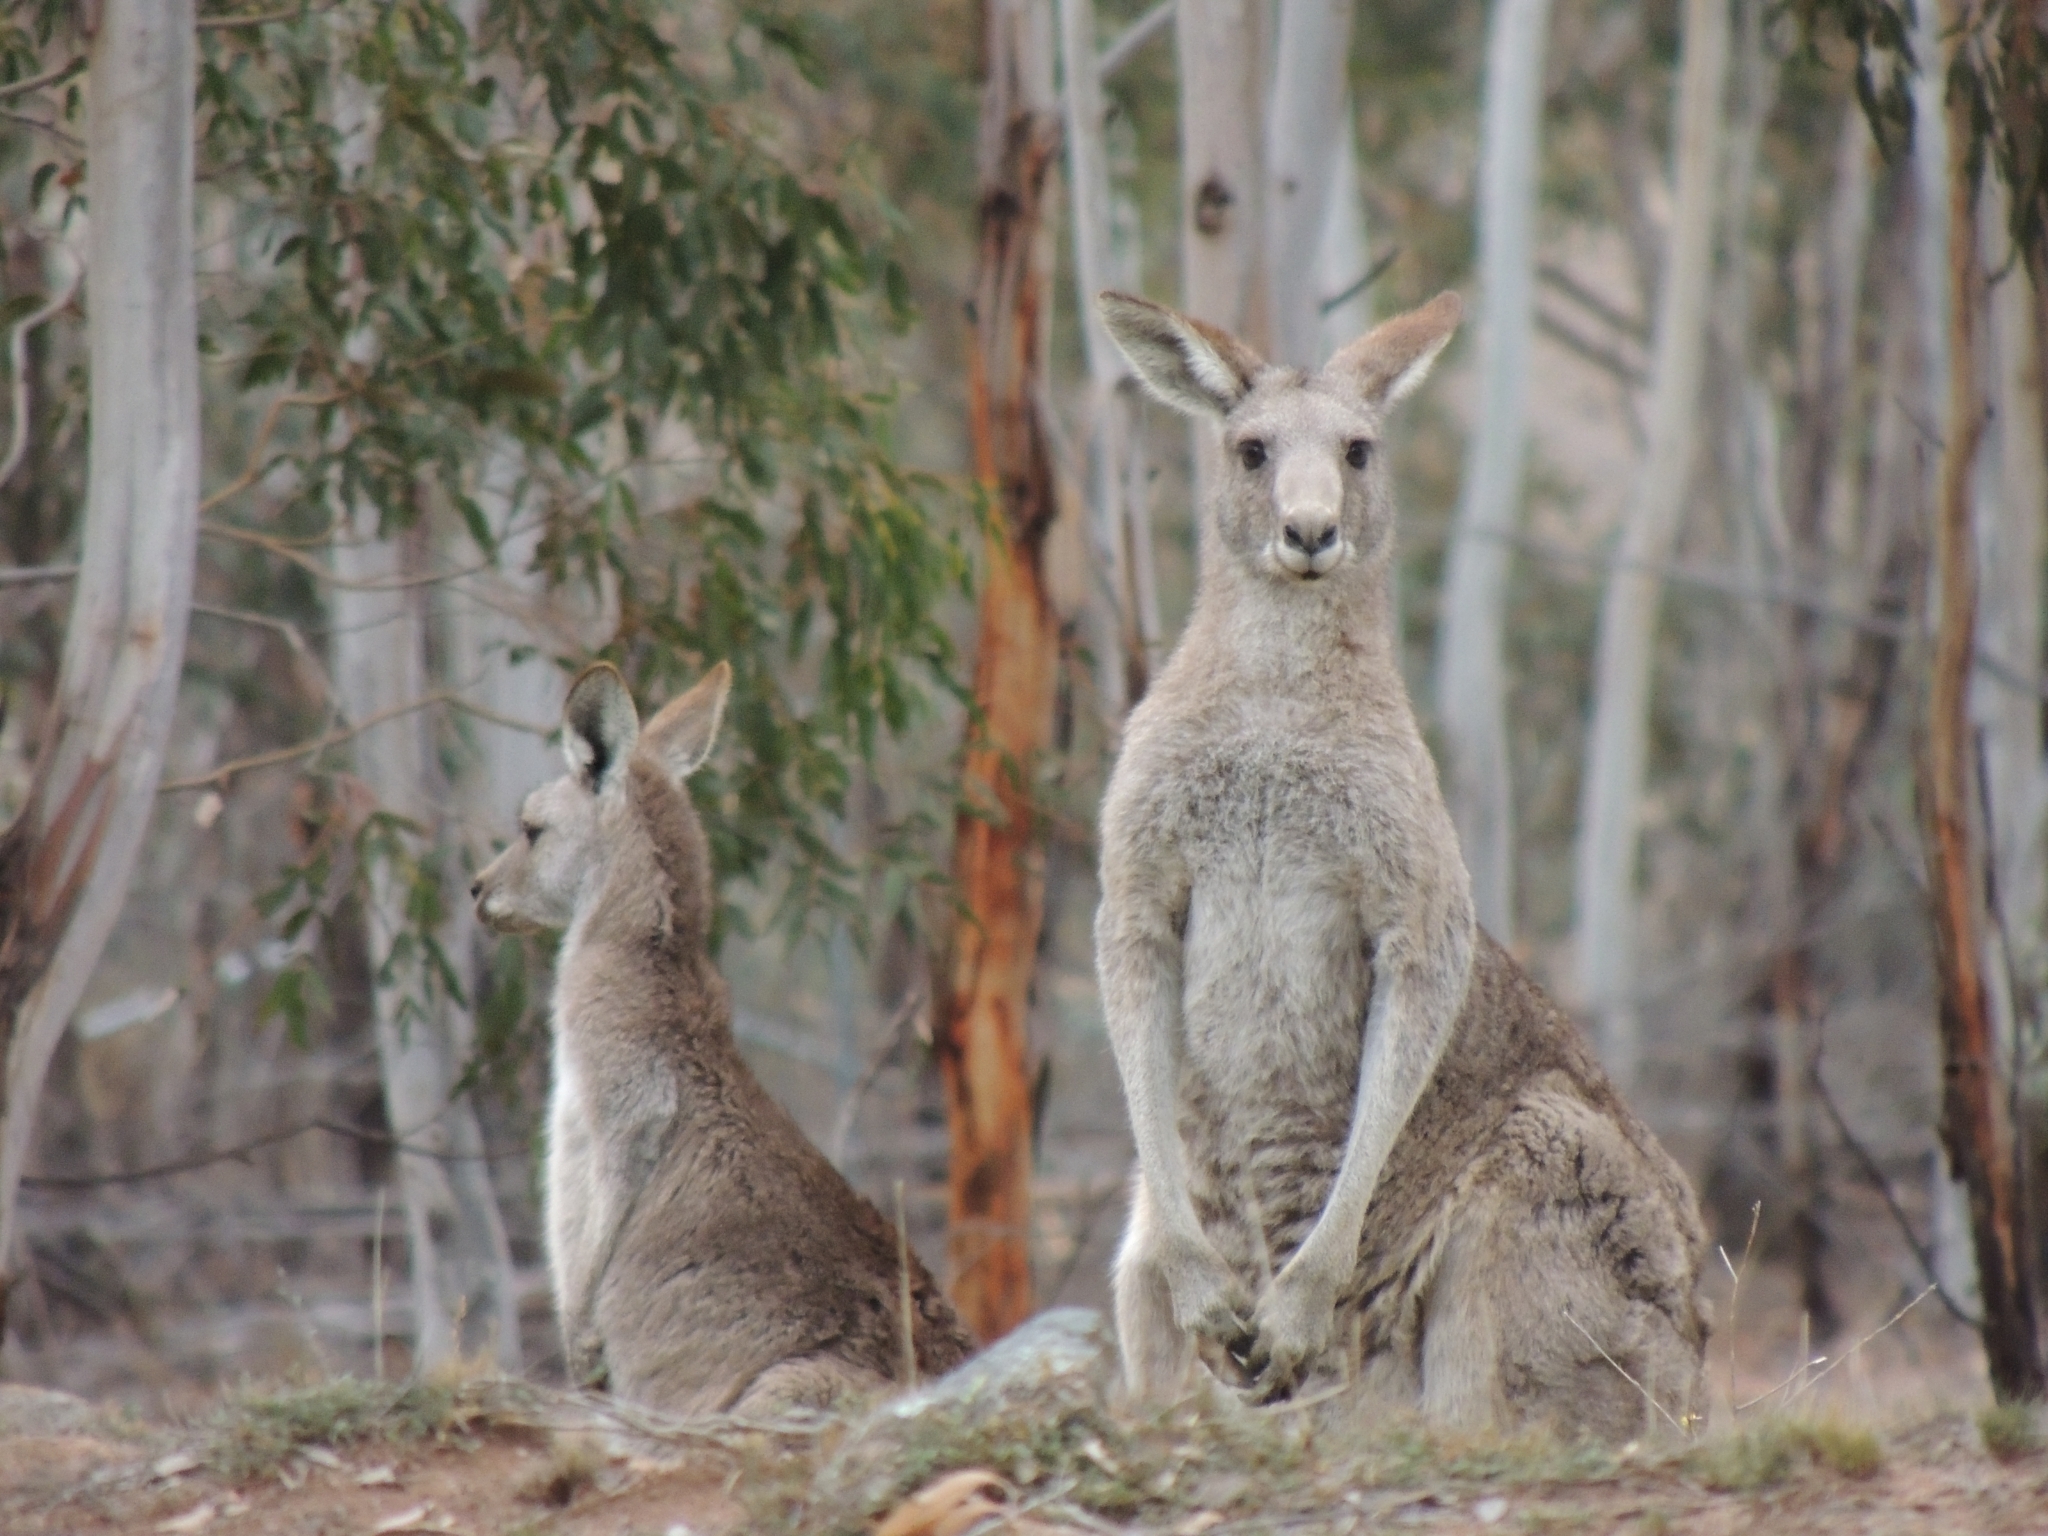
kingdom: Animalia
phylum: Chordata
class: Mammalia
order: Diprotodontia
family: Macropodidae
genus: Macropus
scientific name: Macropus giganteus
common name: Eastern grey kangaroo
